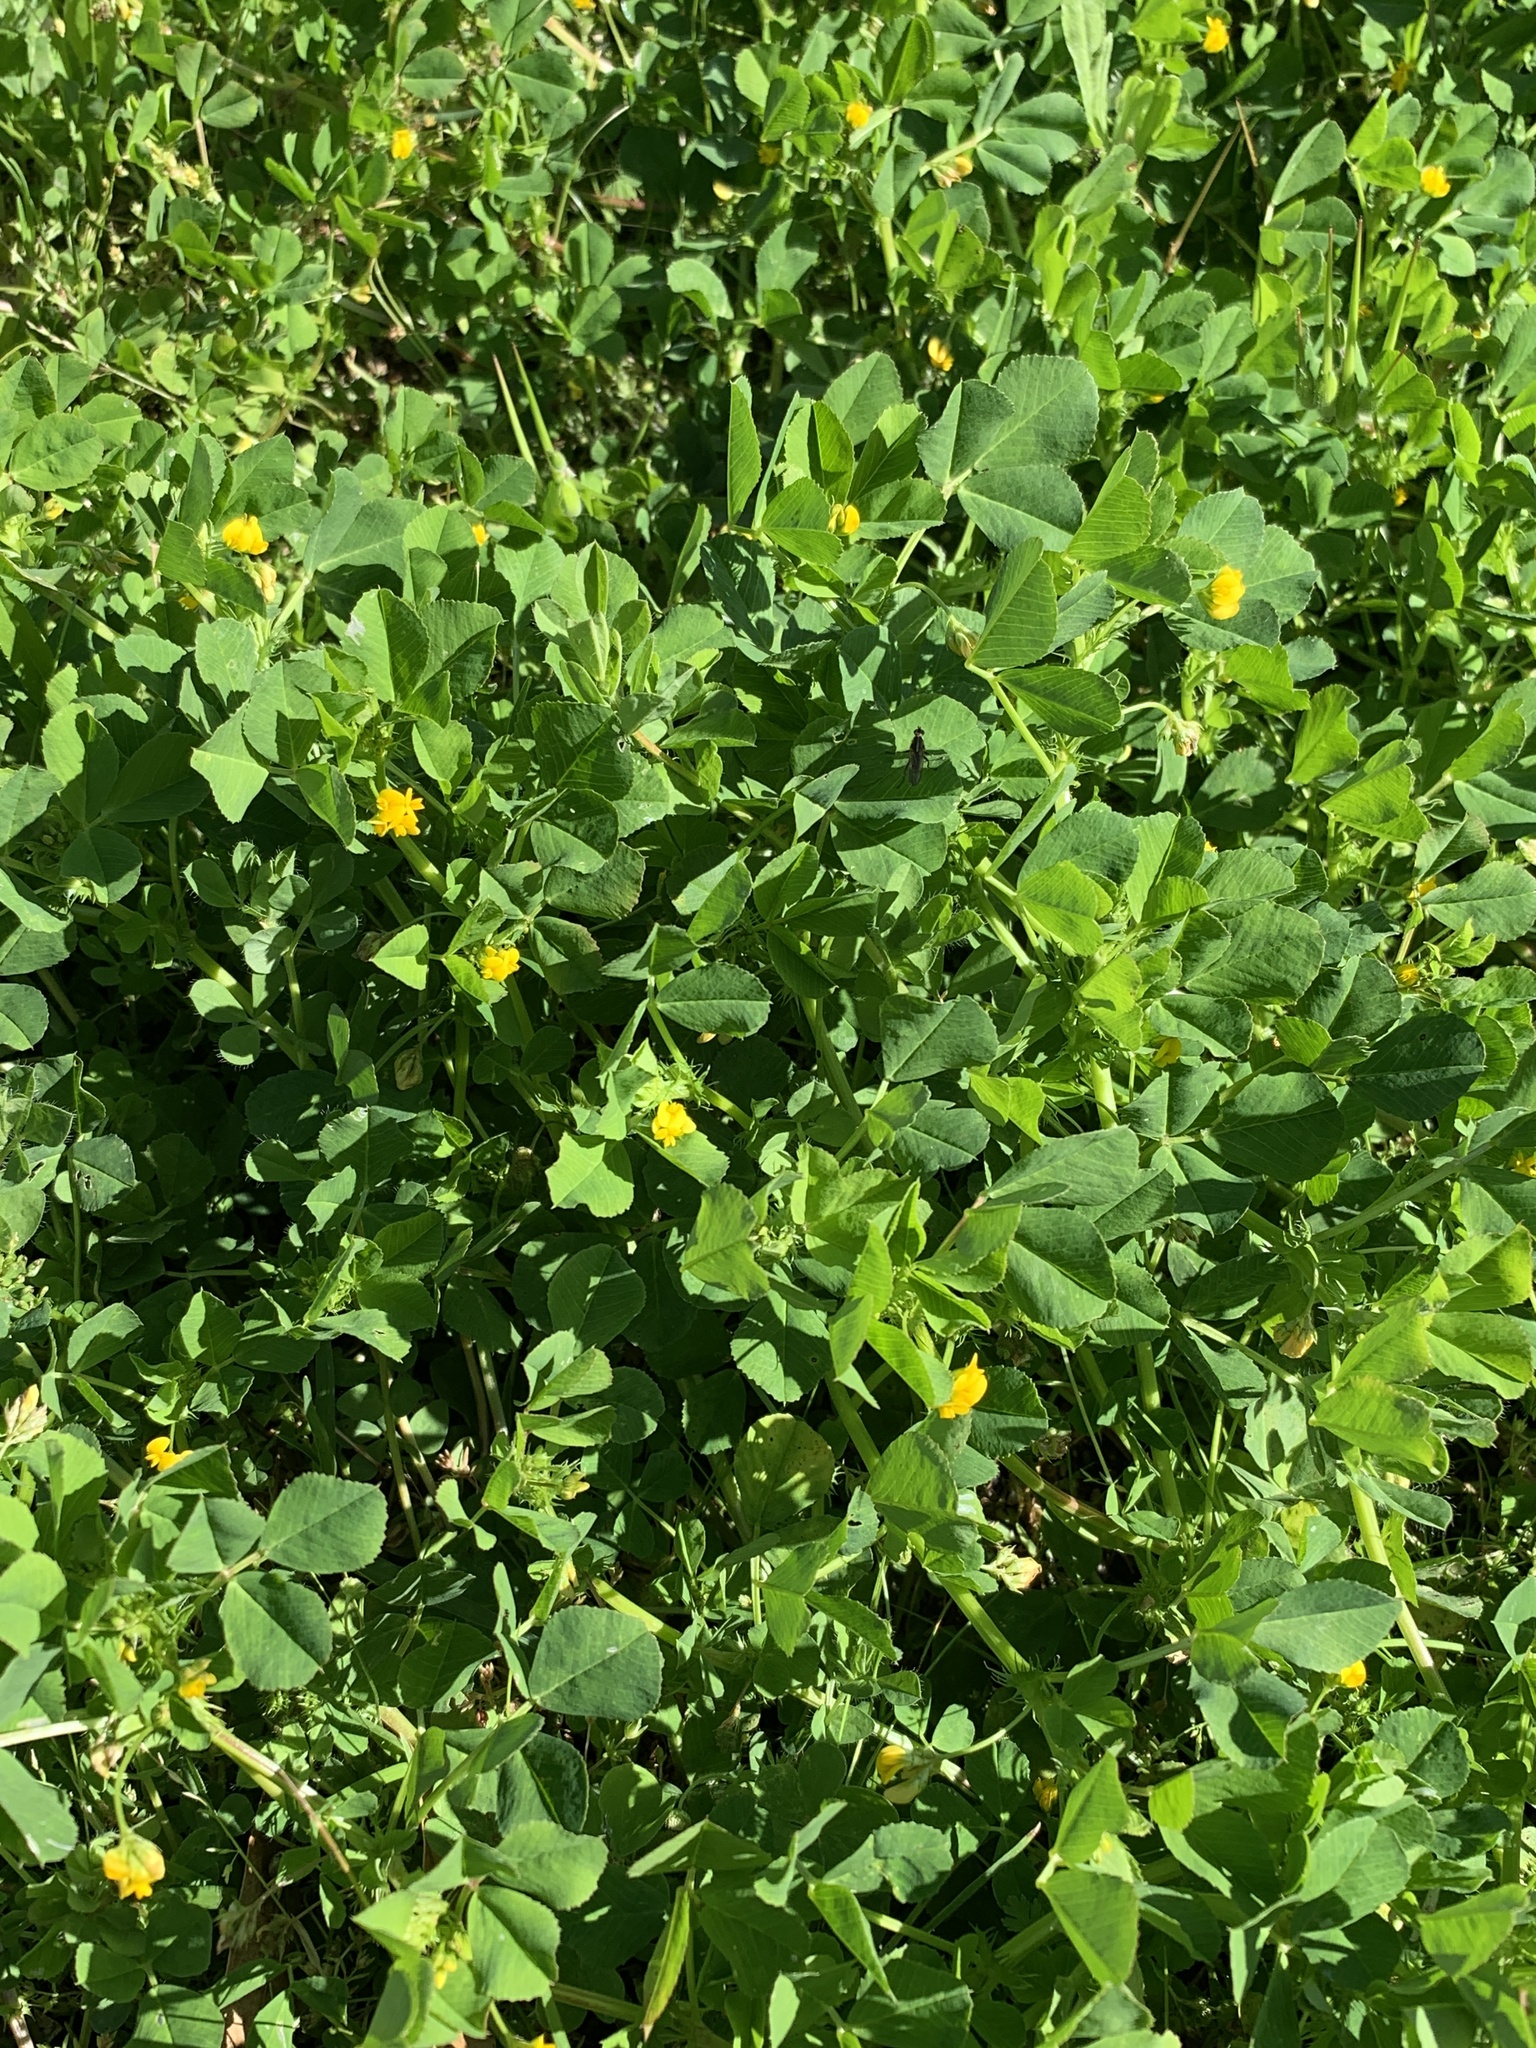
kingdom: Plantae
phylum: Tracheophyta
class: Magnoliopsida
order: Fabales
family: Fabaceae
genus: Medicago
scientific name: Medicago polymorpha
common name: Burclover
